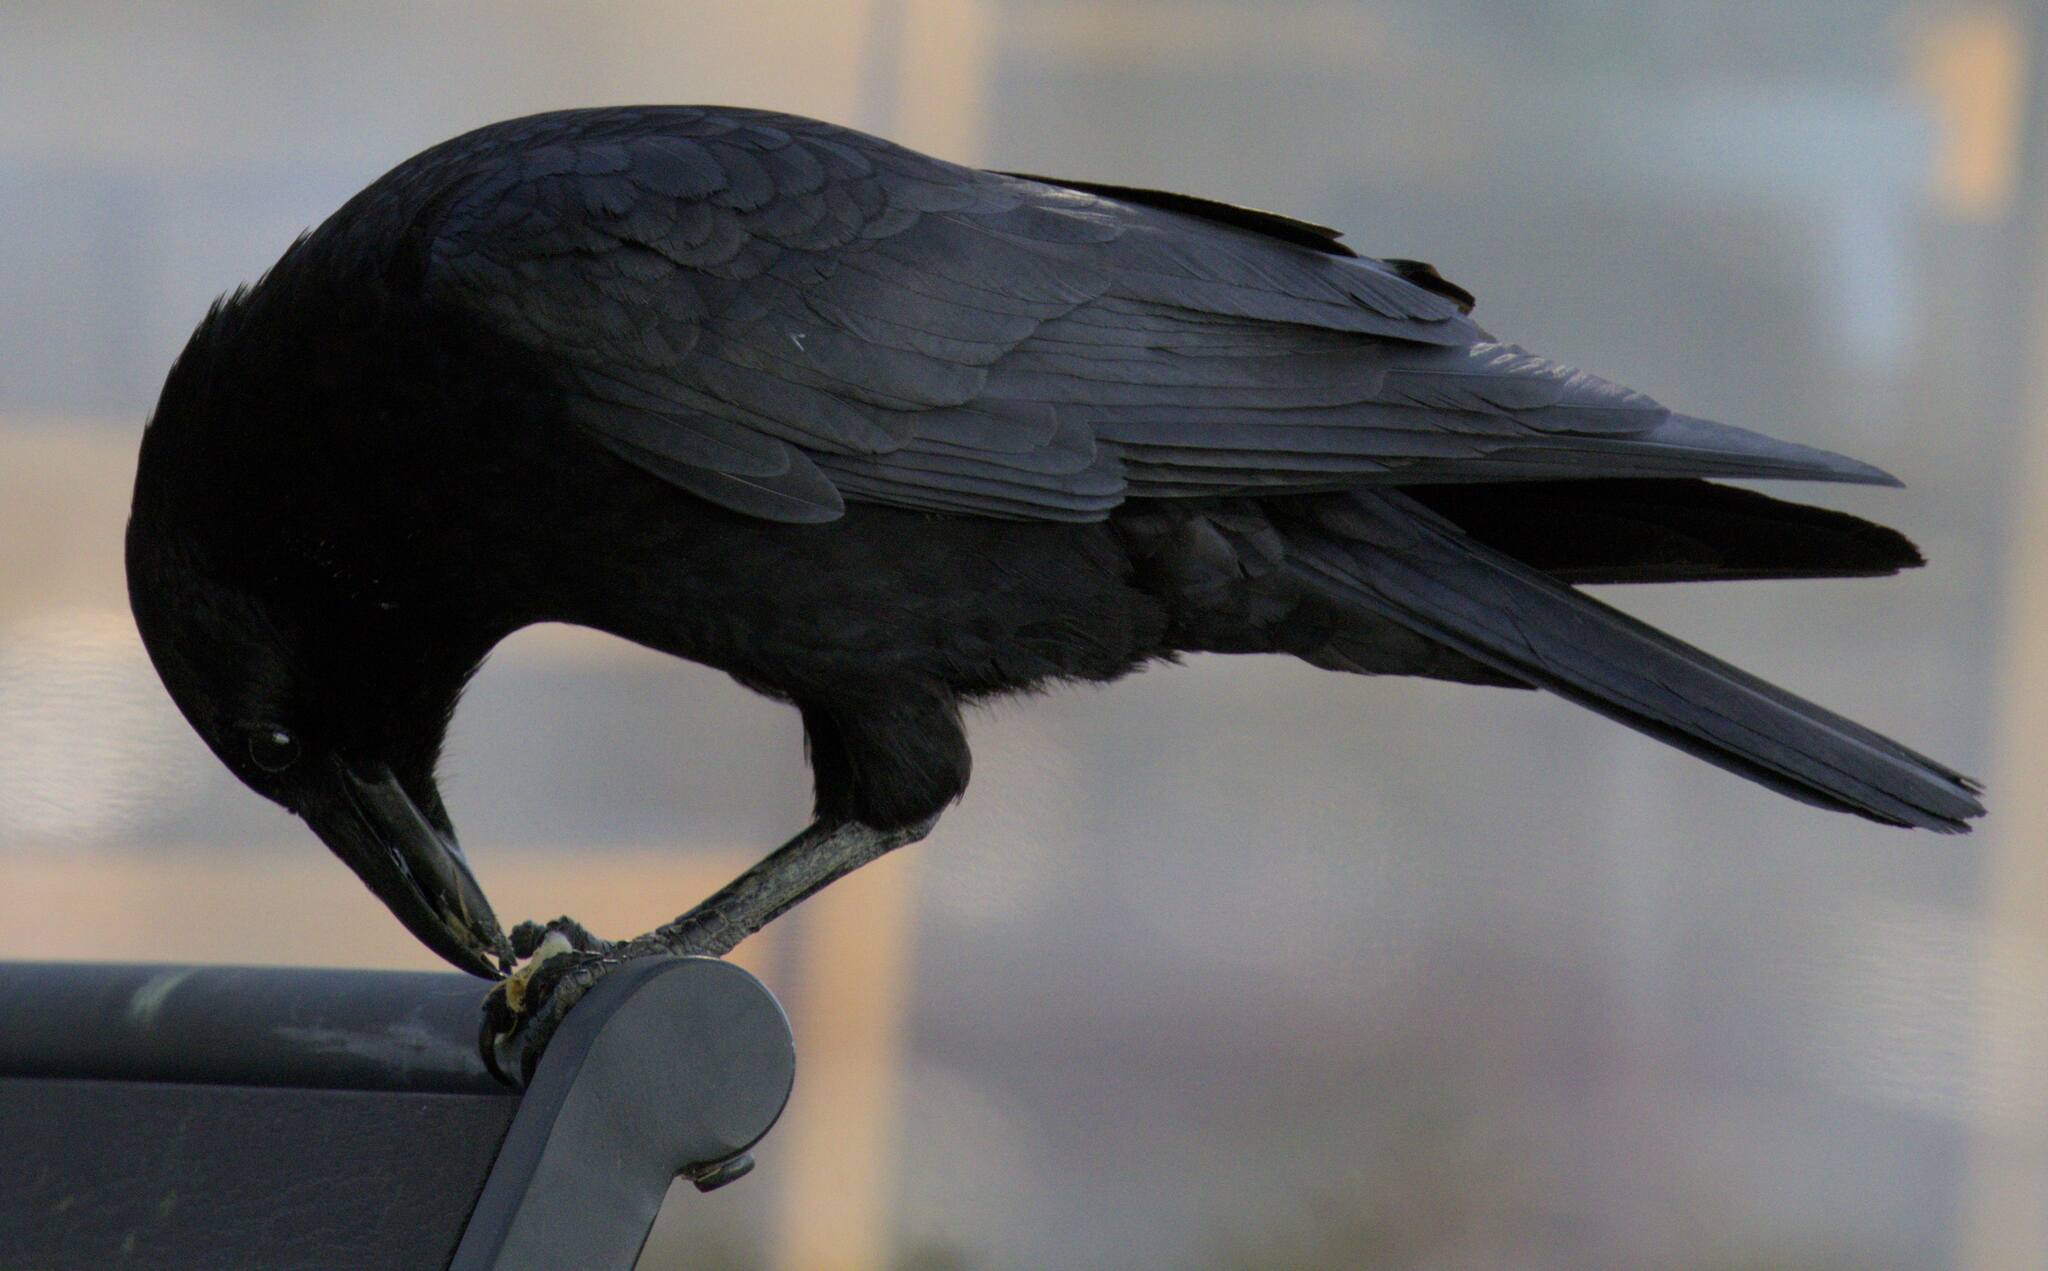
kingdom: Animalia
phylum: Chordata
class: Aves
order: Passeriformes
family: Corvidae
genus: Corvus
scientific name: Corvus brachyrhynchos
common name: American crow
